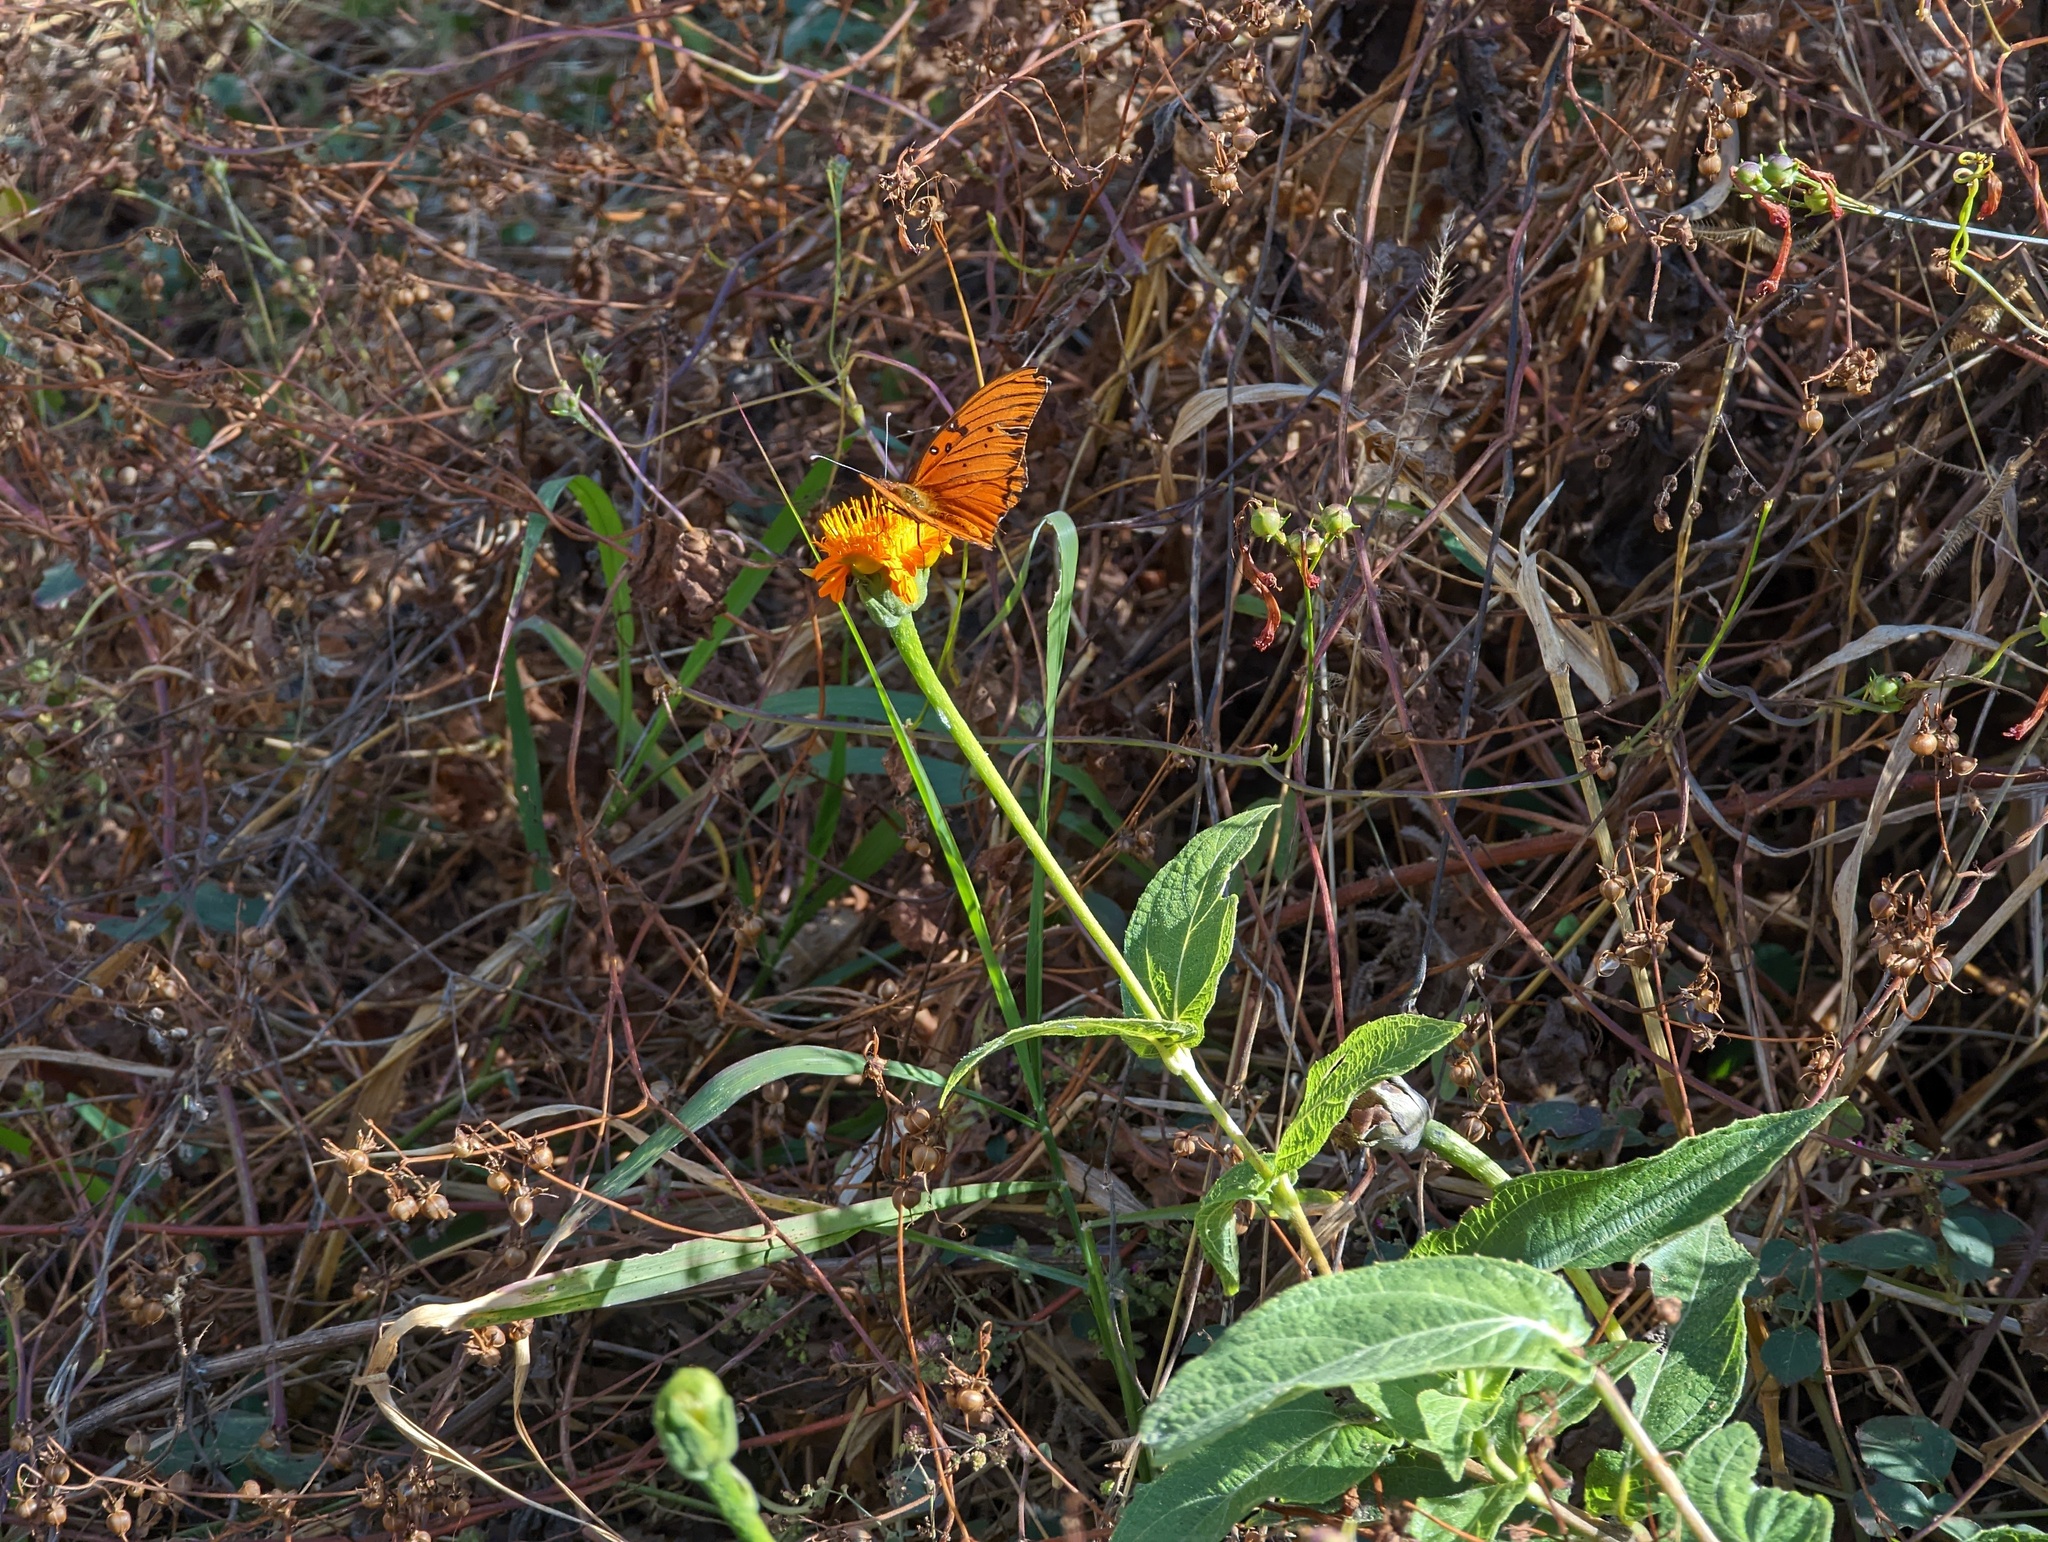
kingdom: Animalia
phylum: Arthropoda
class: Insecta
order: Lepidoptera
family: Nymphalidae
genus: Dione
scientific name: Dione vanillae
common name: Gulf fritillary
